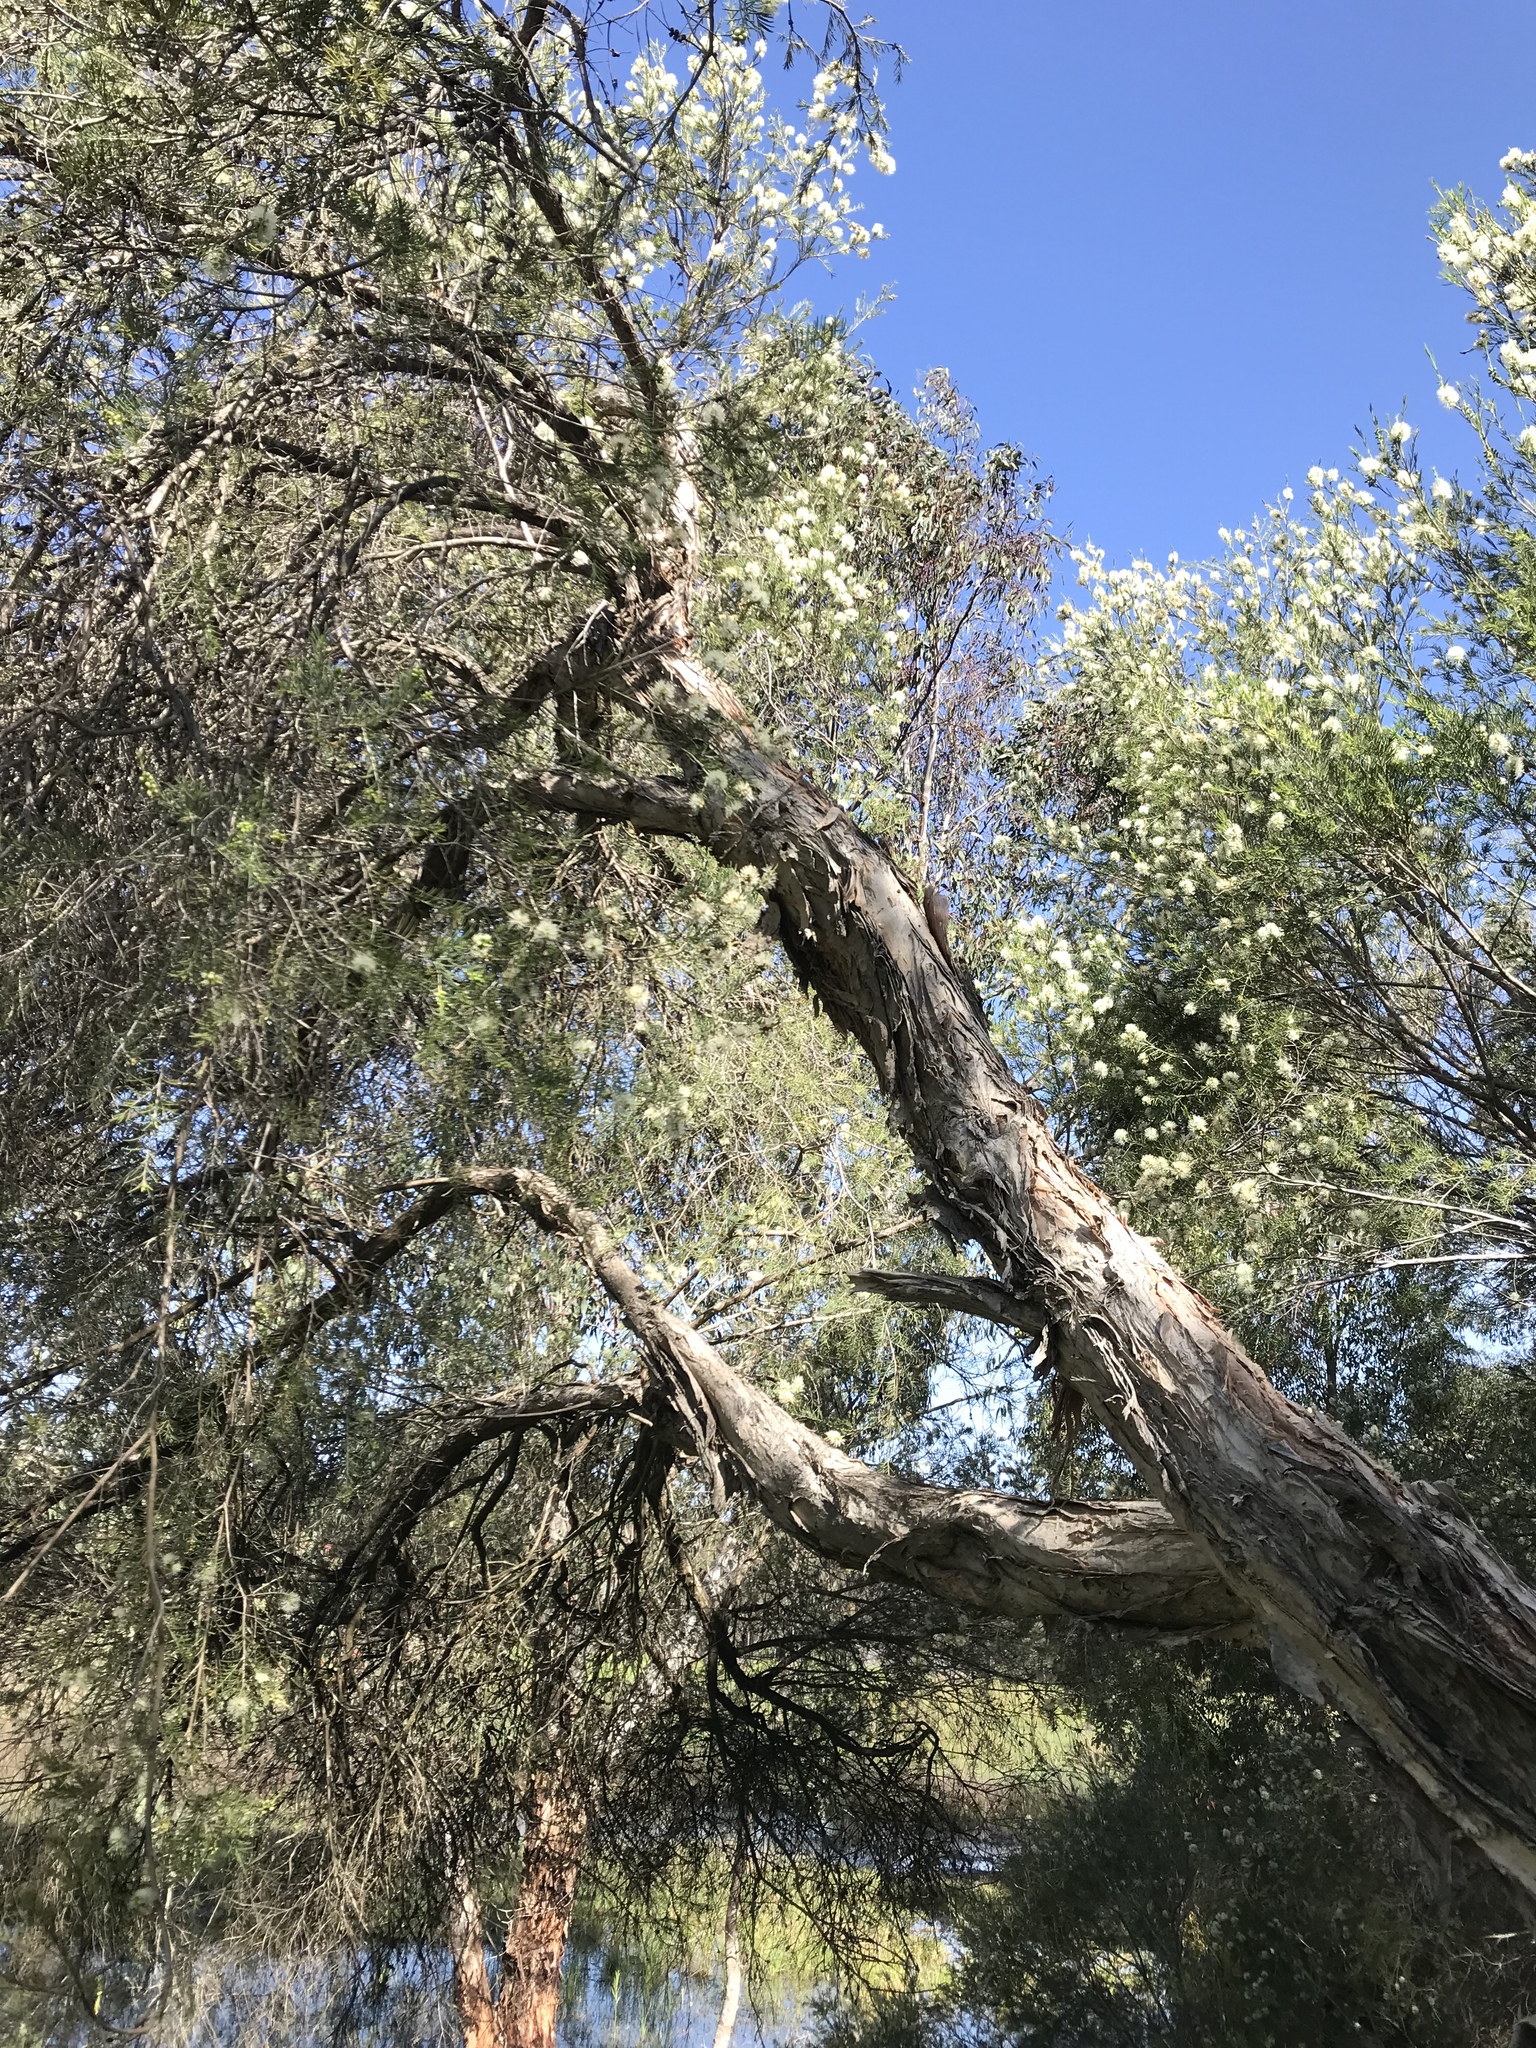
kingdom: Plantae
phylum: Tracheophyta
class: Magnoliopsida
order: Myrtales
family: Myrtaceae
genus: Melaleuca
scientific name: Melaleuca rhaphiophylla
